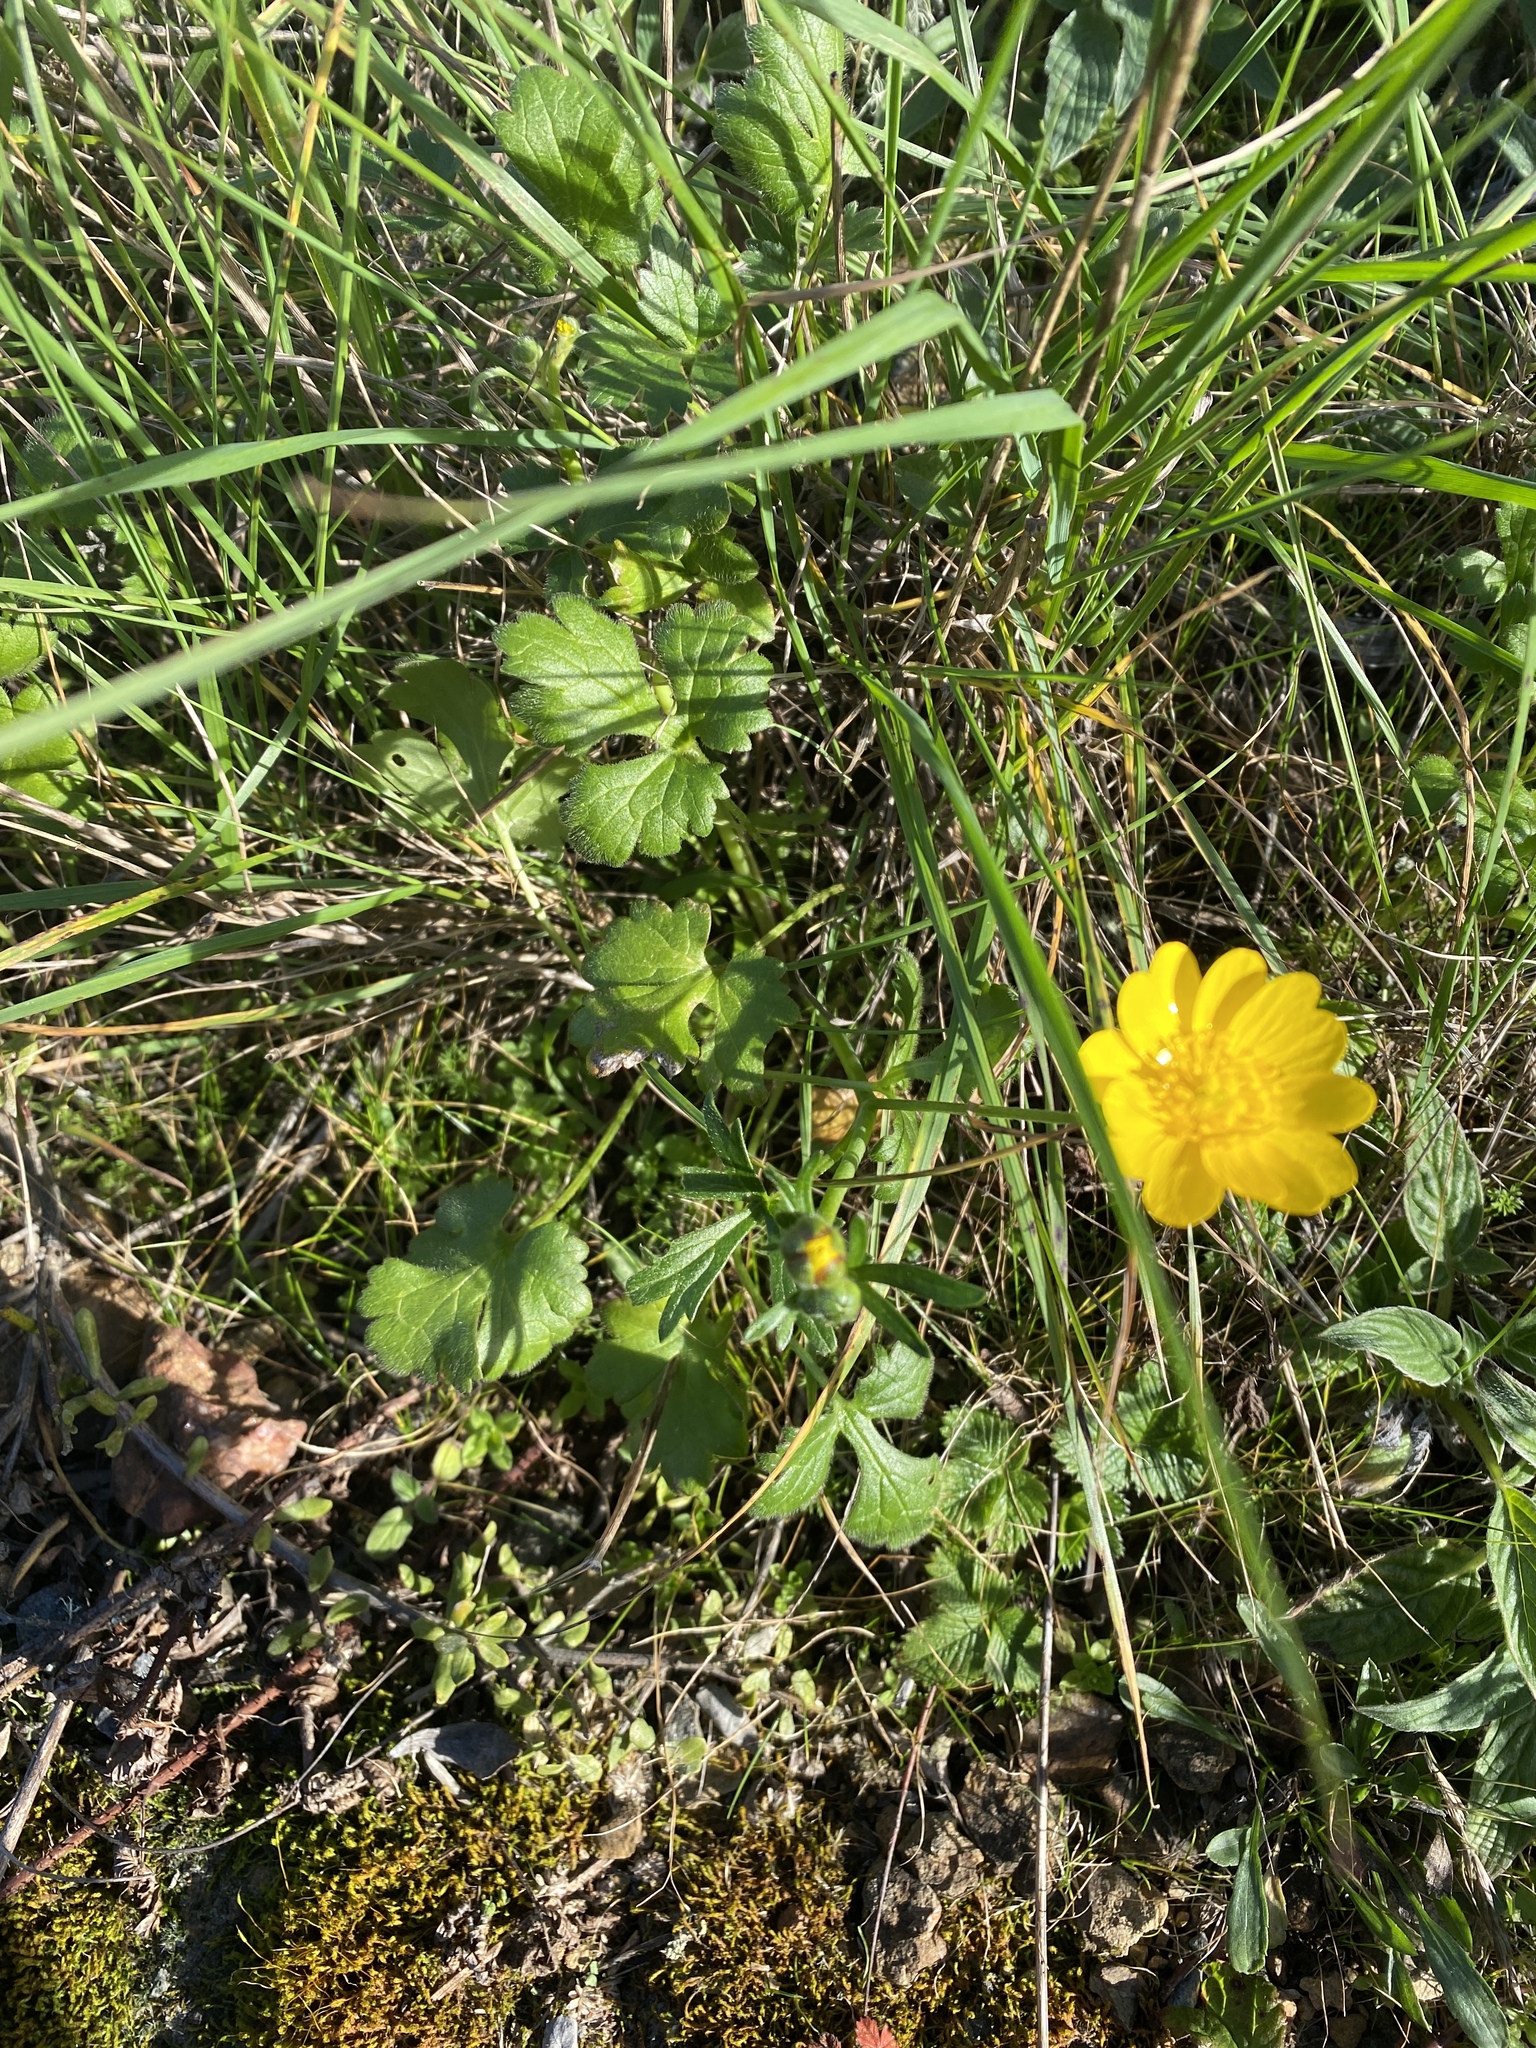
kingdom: Plantae
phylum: Tracheophyta
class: Magnoliopsida
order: Ranunculales
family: Ranunculaceae
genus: Ranunculus
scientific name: Ranunculus californicus
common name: California buttercup
